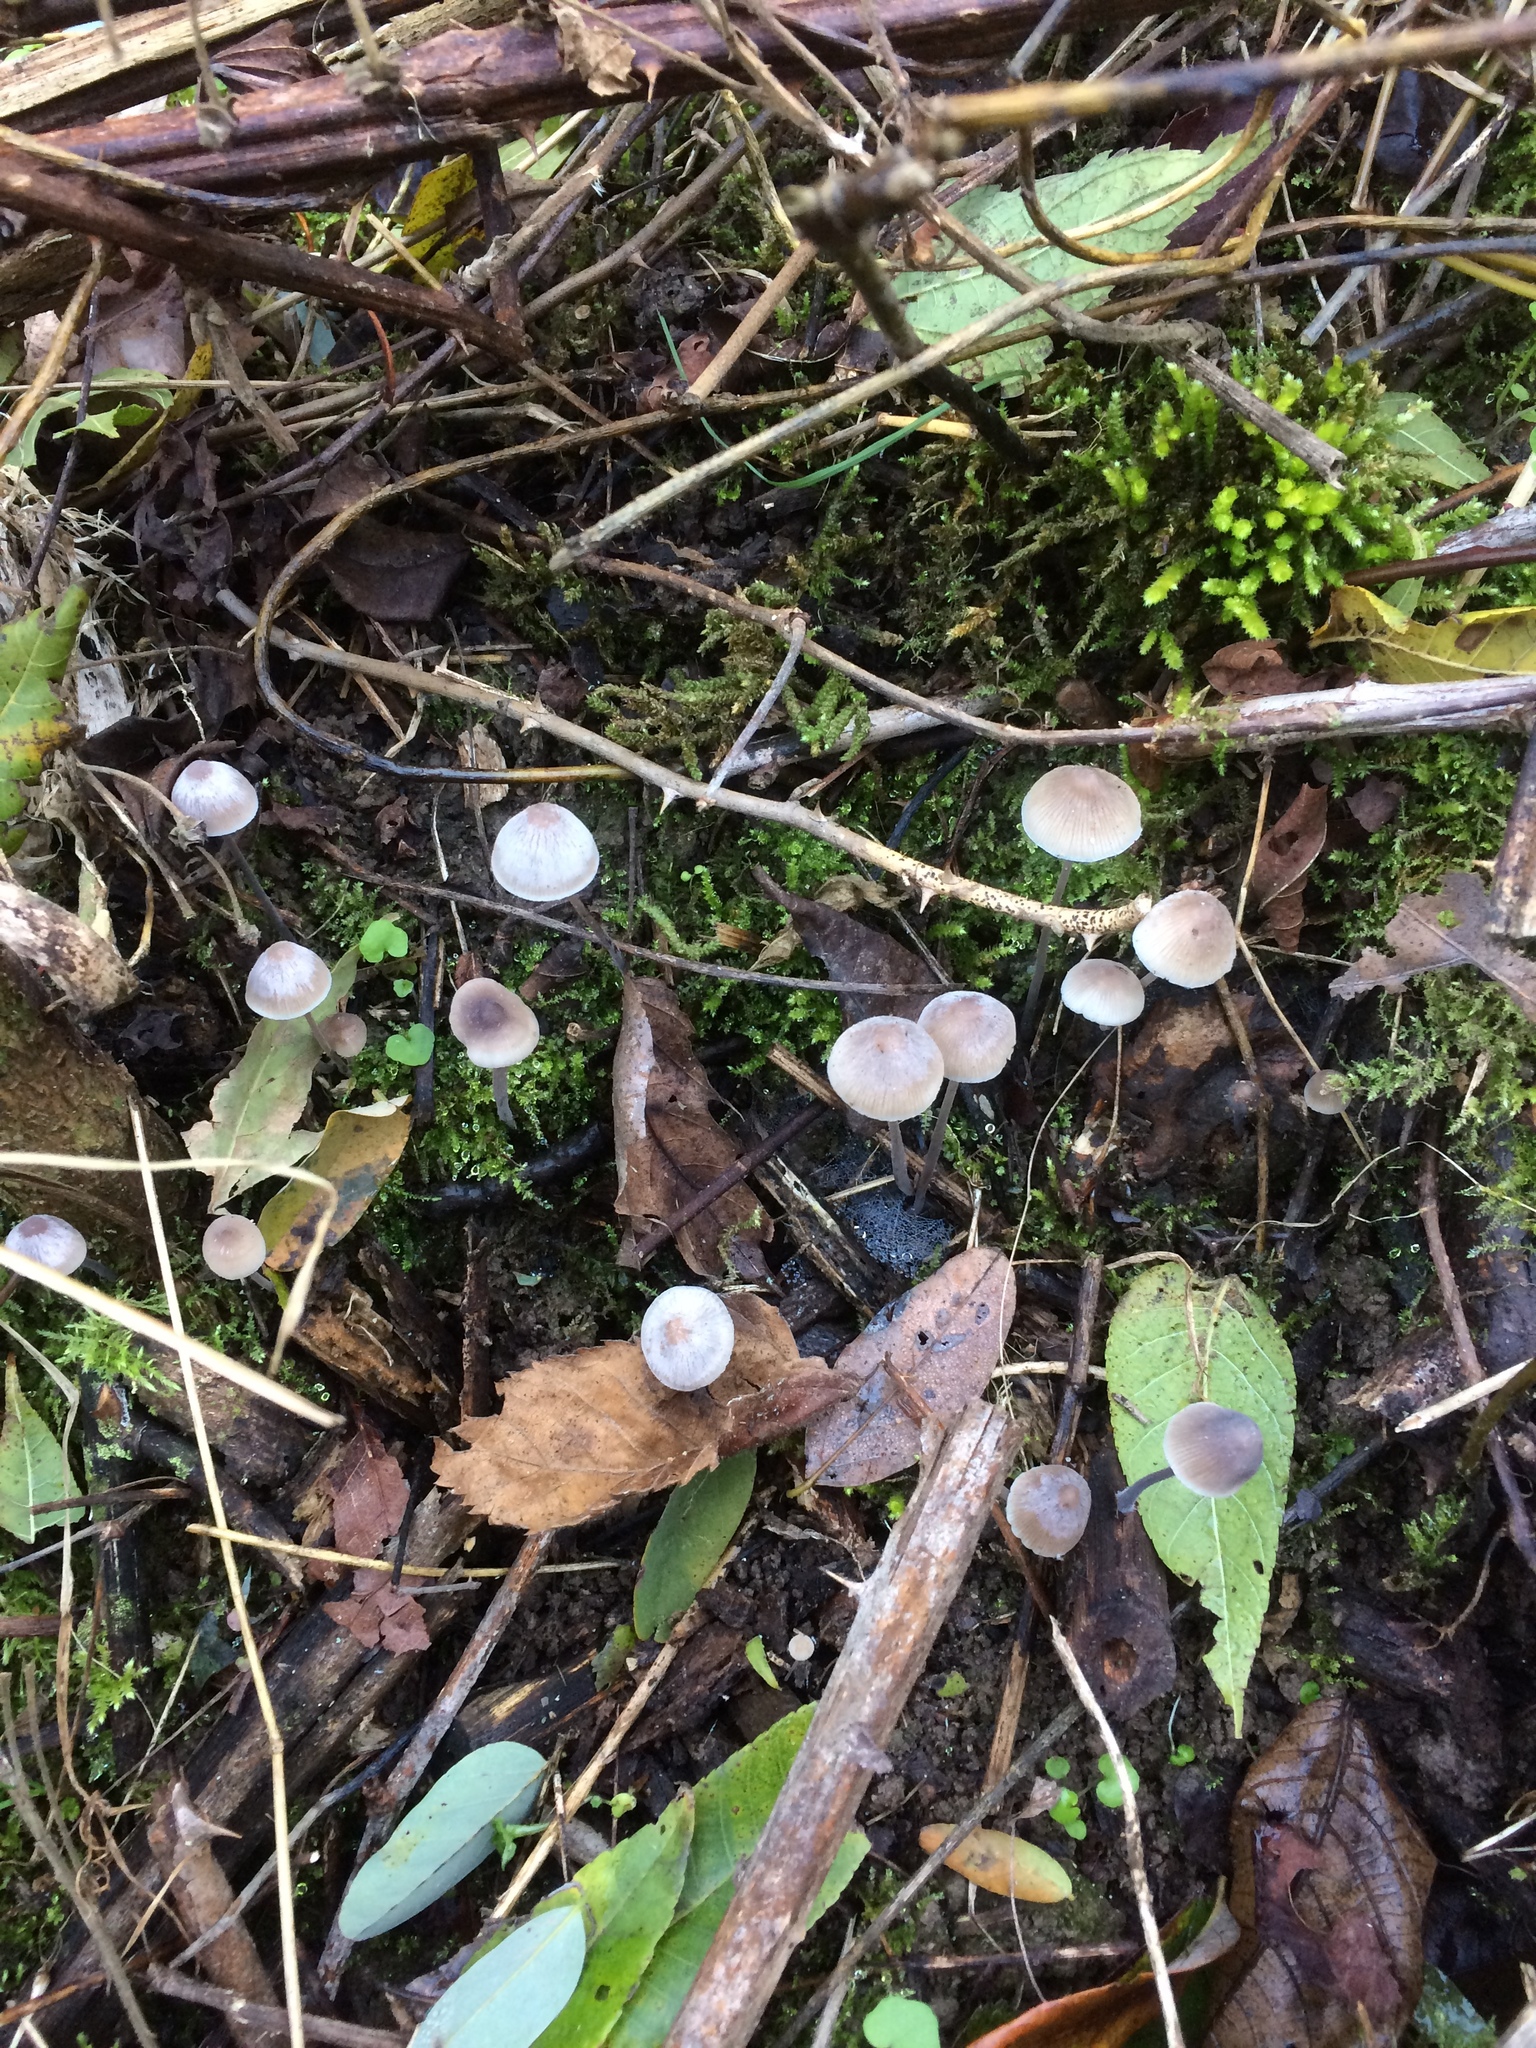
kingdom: Fungi
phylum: Basidiomycota
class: Agaricomycetes
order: Agaricales
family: Mycenaceae
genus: Mycena
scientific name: Mycena filopes
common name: Iodine bonnet
